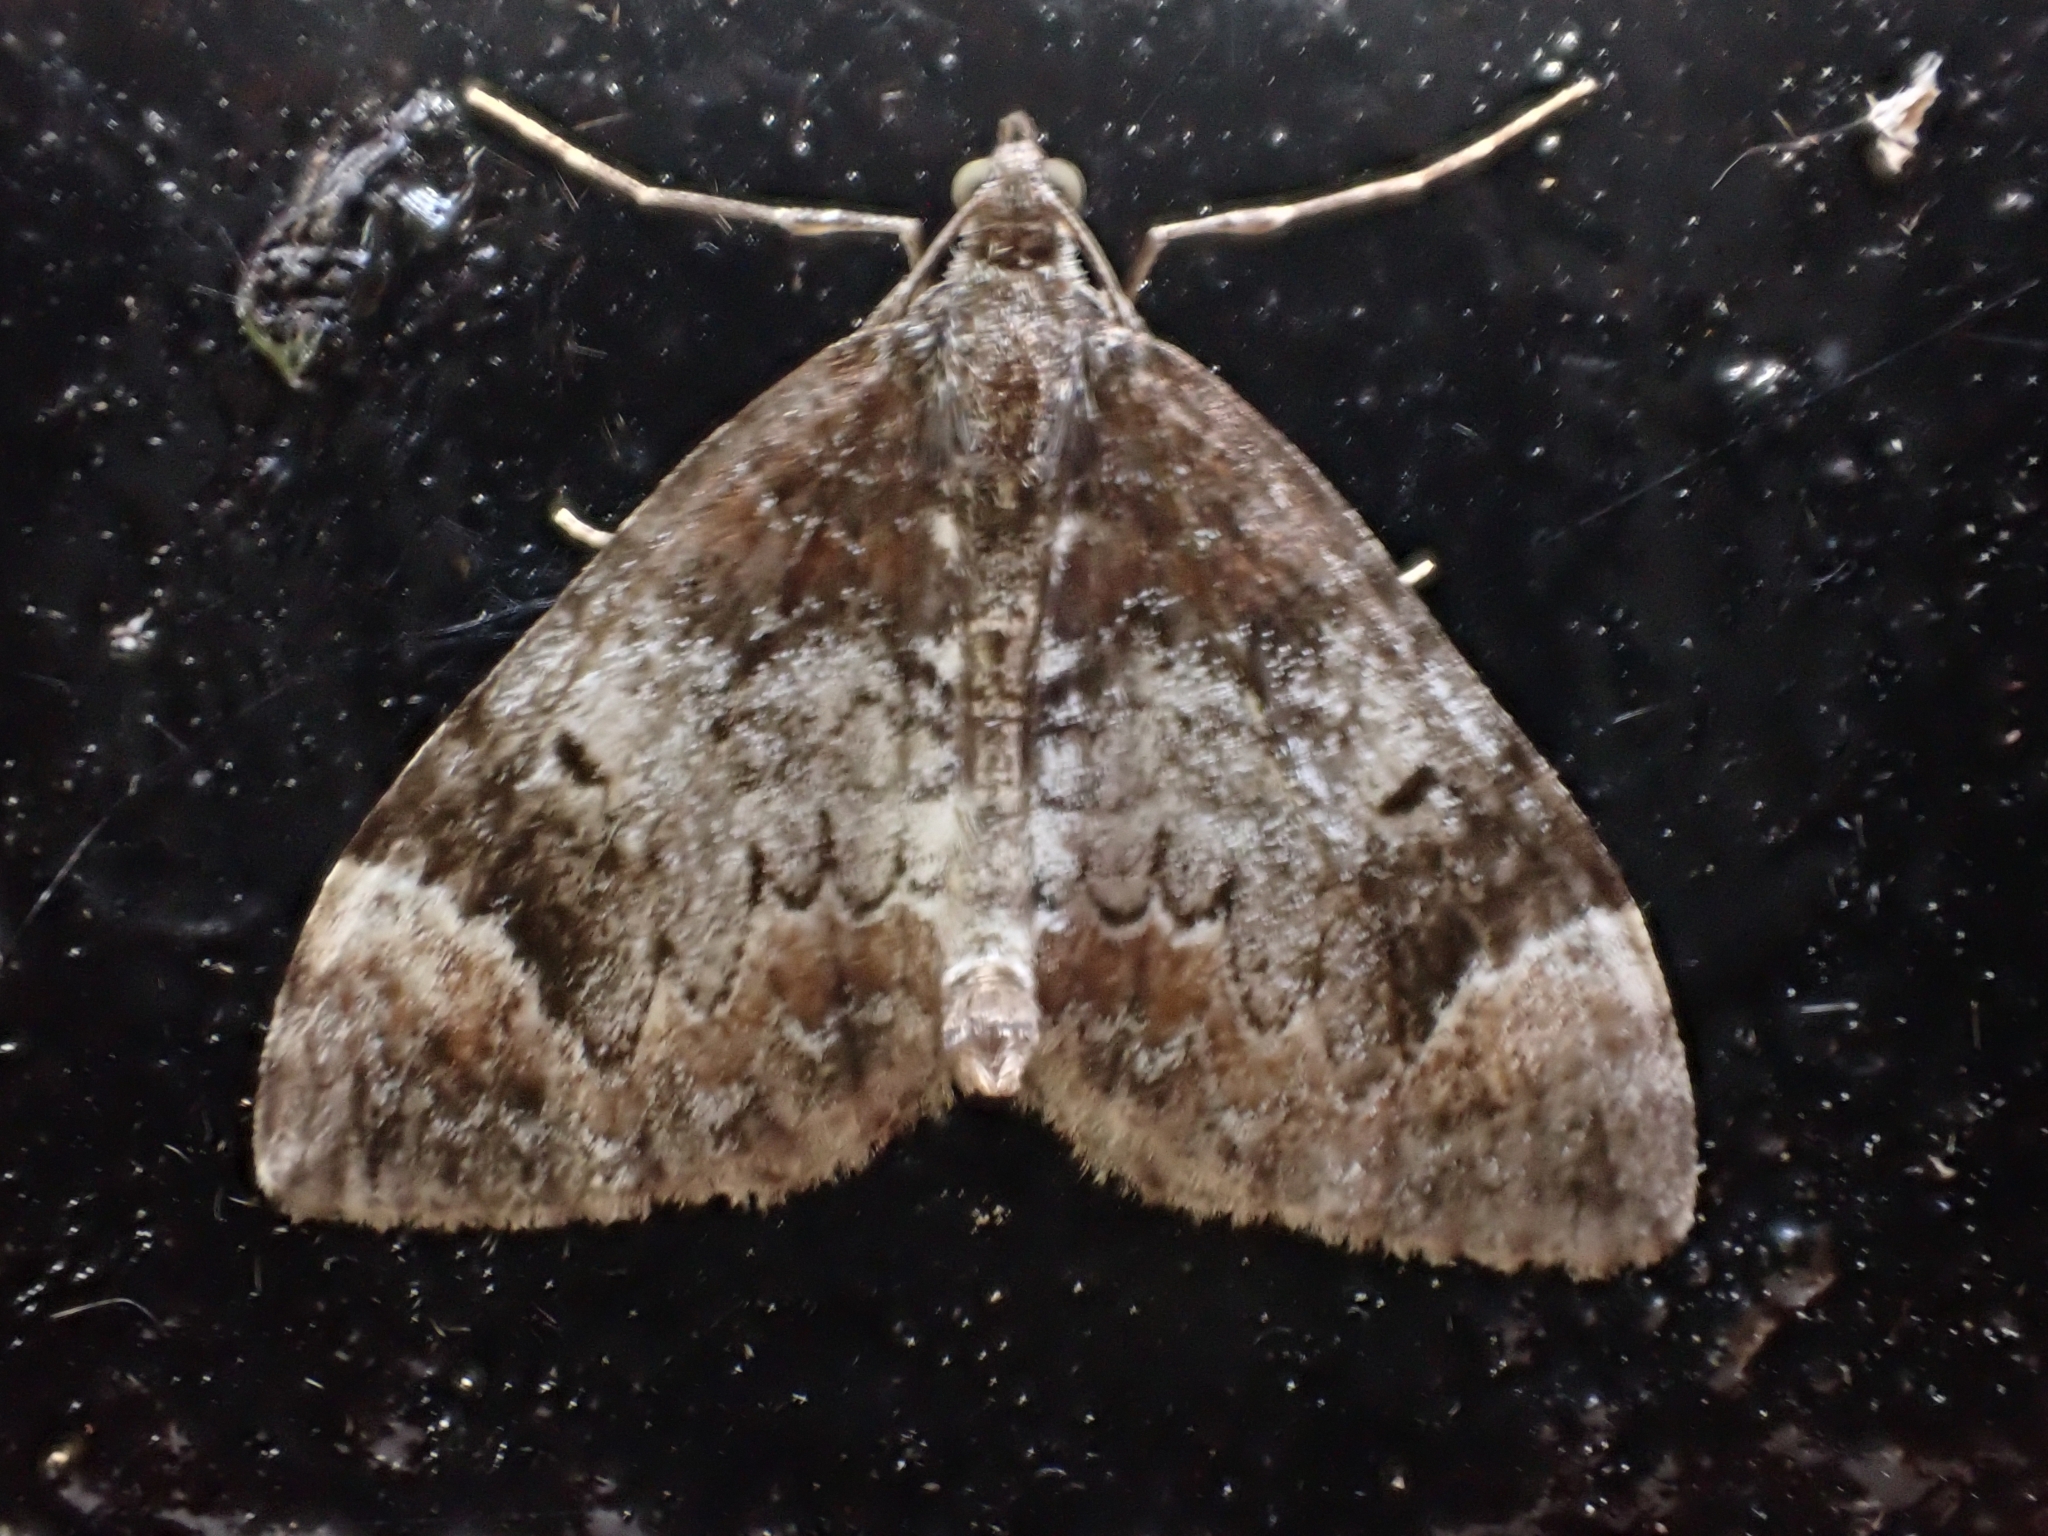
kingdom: Animalia
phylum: Arthropoda
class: Insecta
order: Lepidoptera
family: Geometridae
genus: Dysstroma
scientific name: Dysstroma truncata
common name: Common marbled carpet
